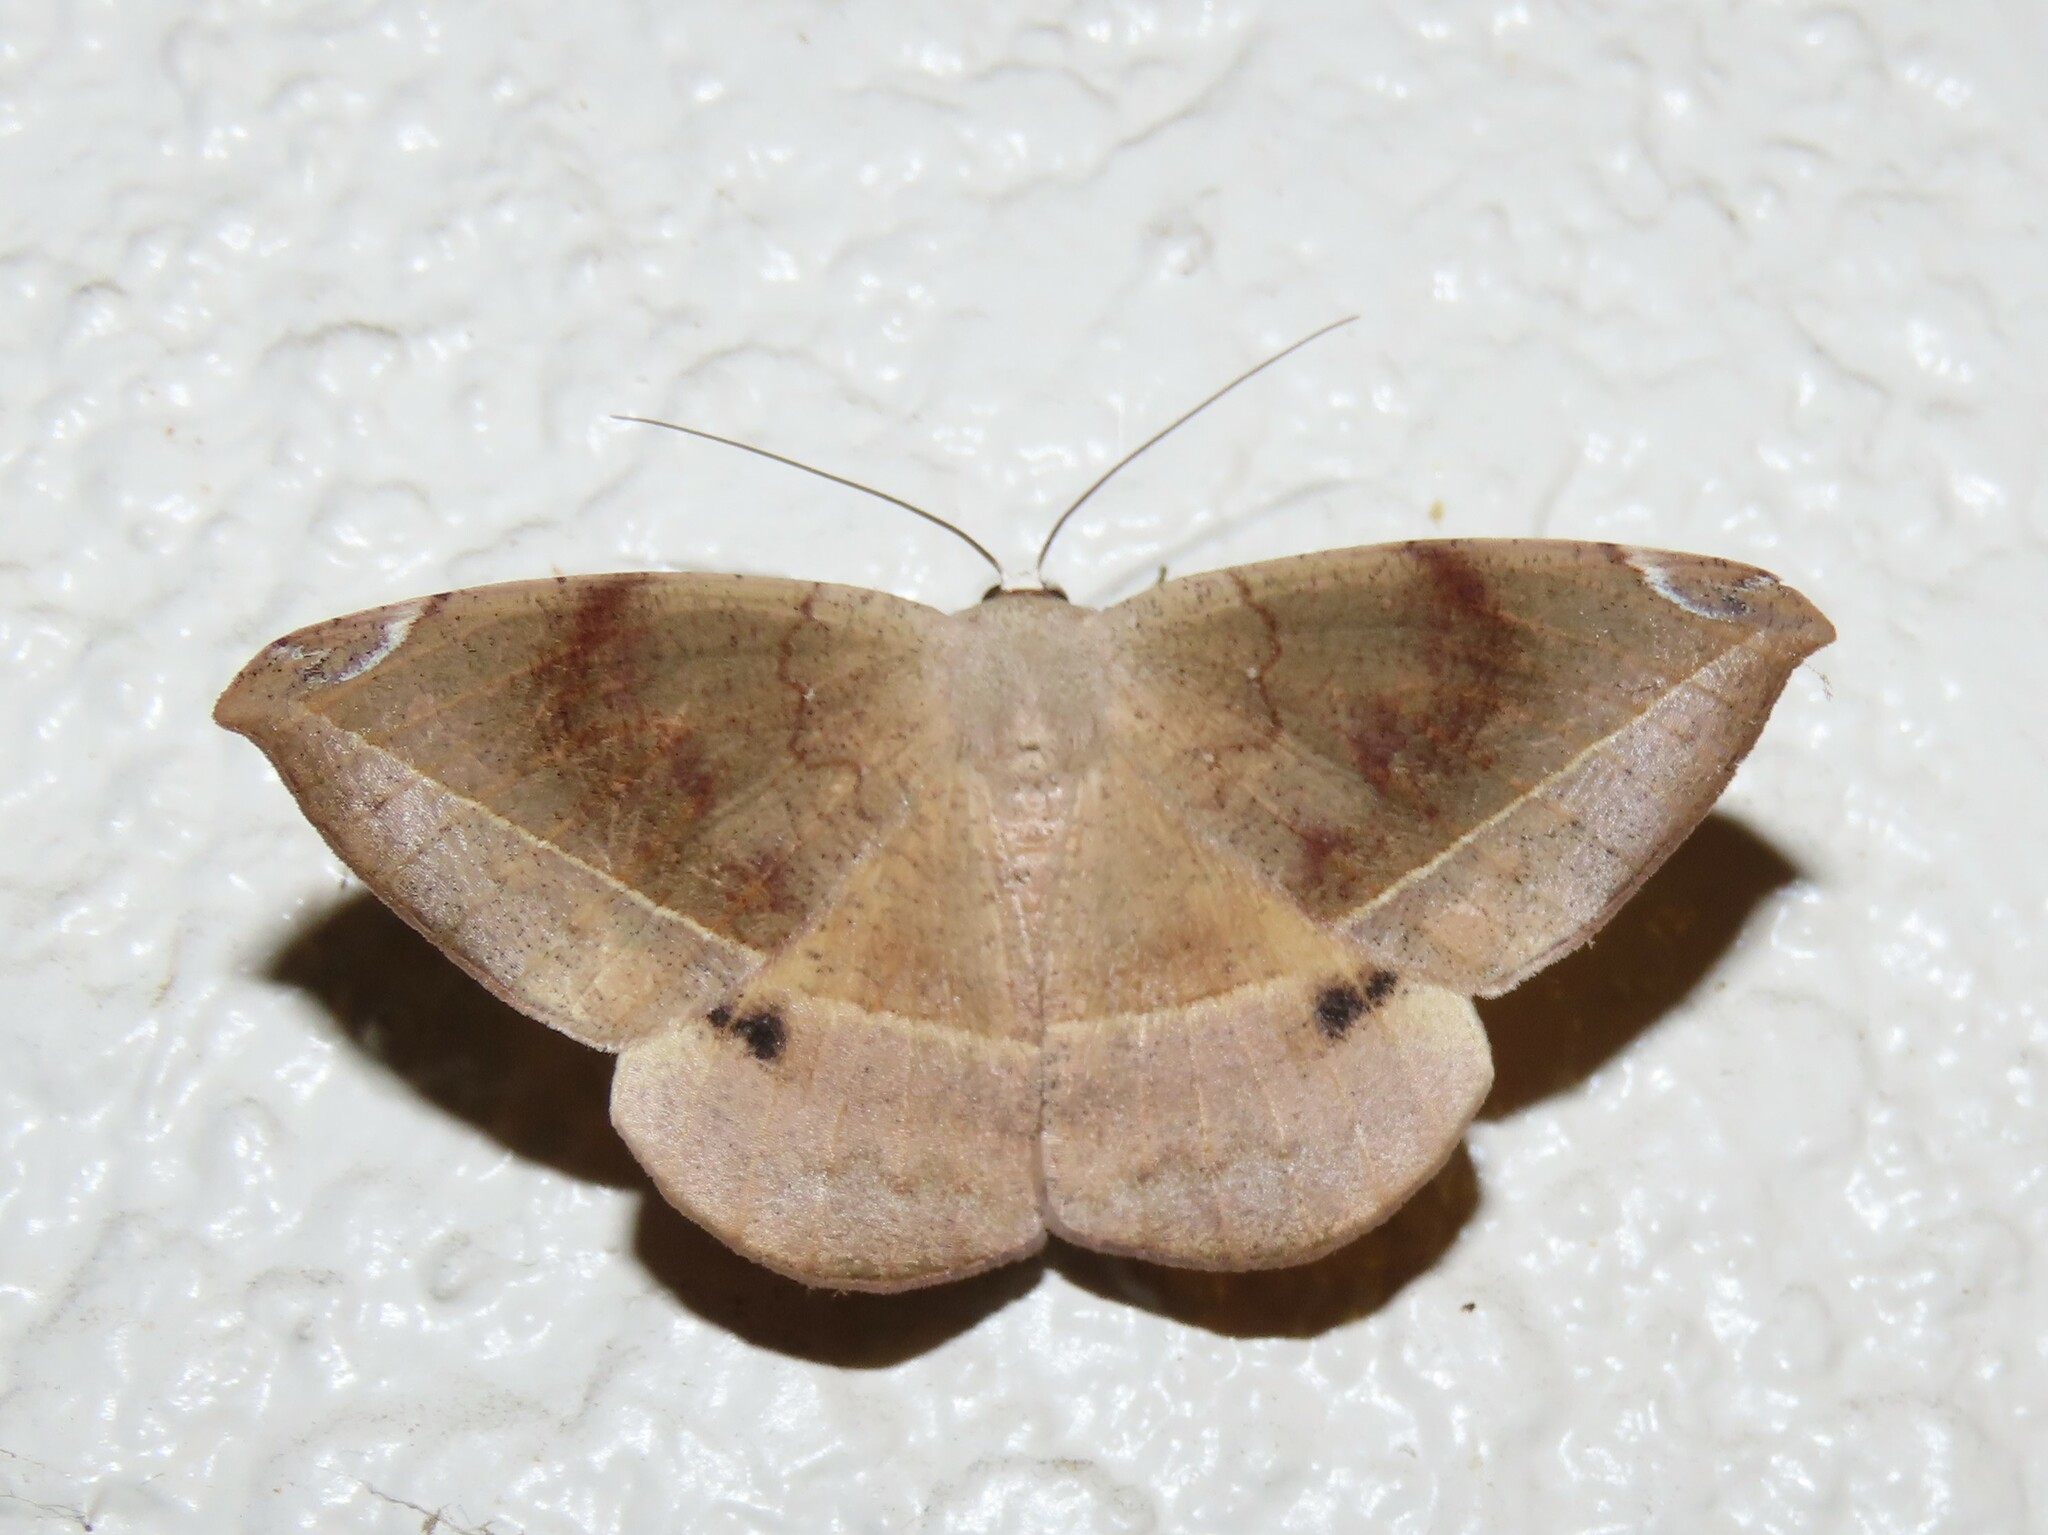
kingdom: Animalia
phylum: Arthropoda
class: Insecta
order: Lepidoptera
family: Geometridae
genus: Oxydia
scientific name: Oxydia vesulia
